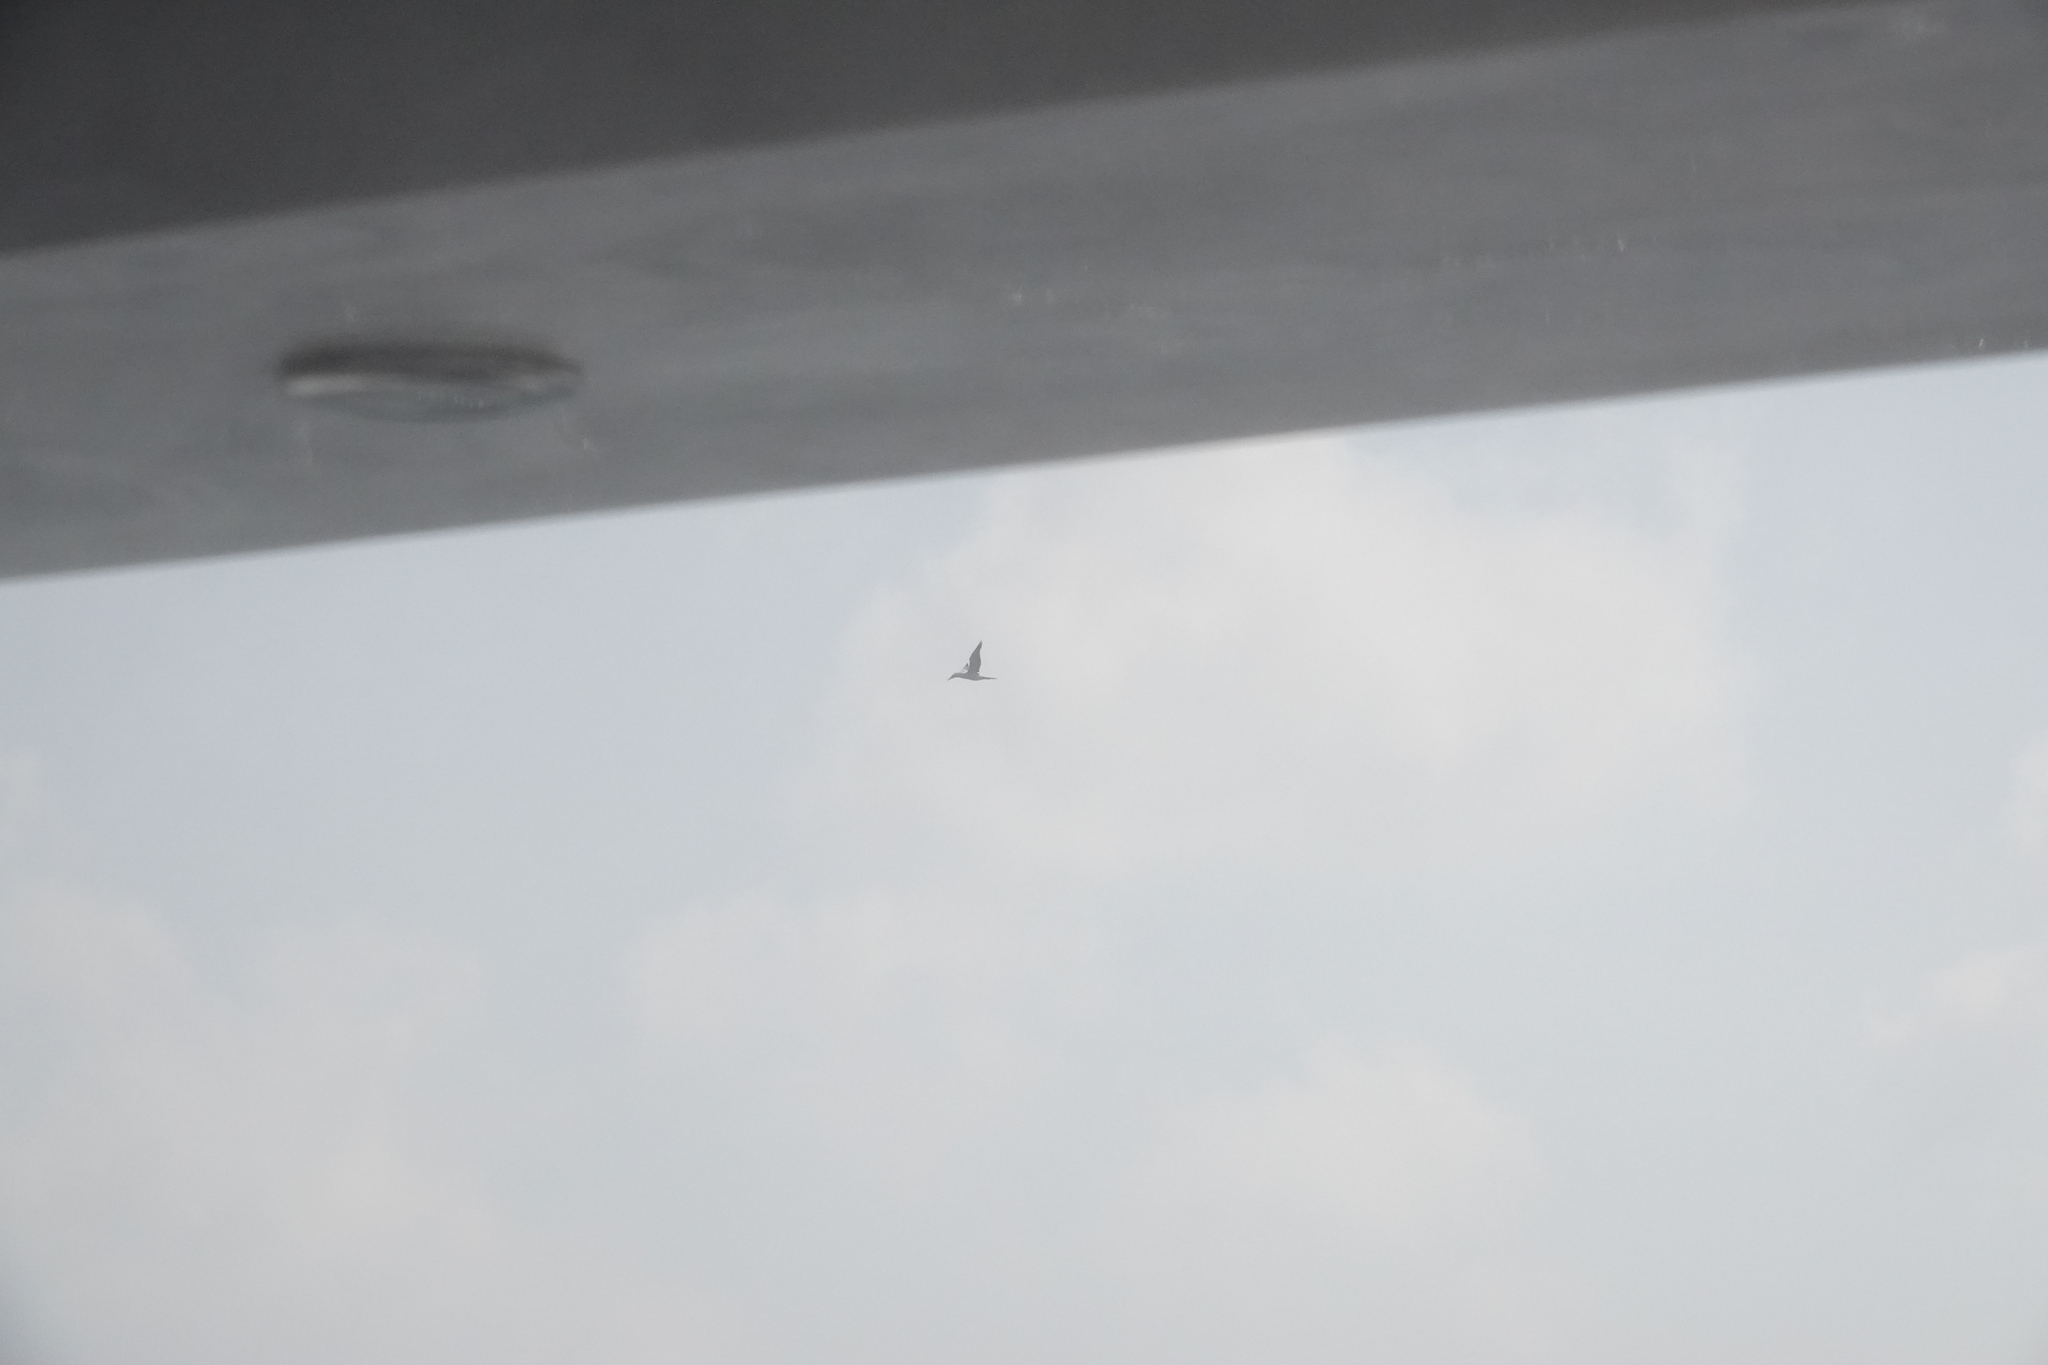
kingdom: Animalia
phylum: Chordata
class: Aves
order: Suliformes
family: Sulidae
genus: Sula
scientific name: Sula dactylatra
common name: Masked booby
